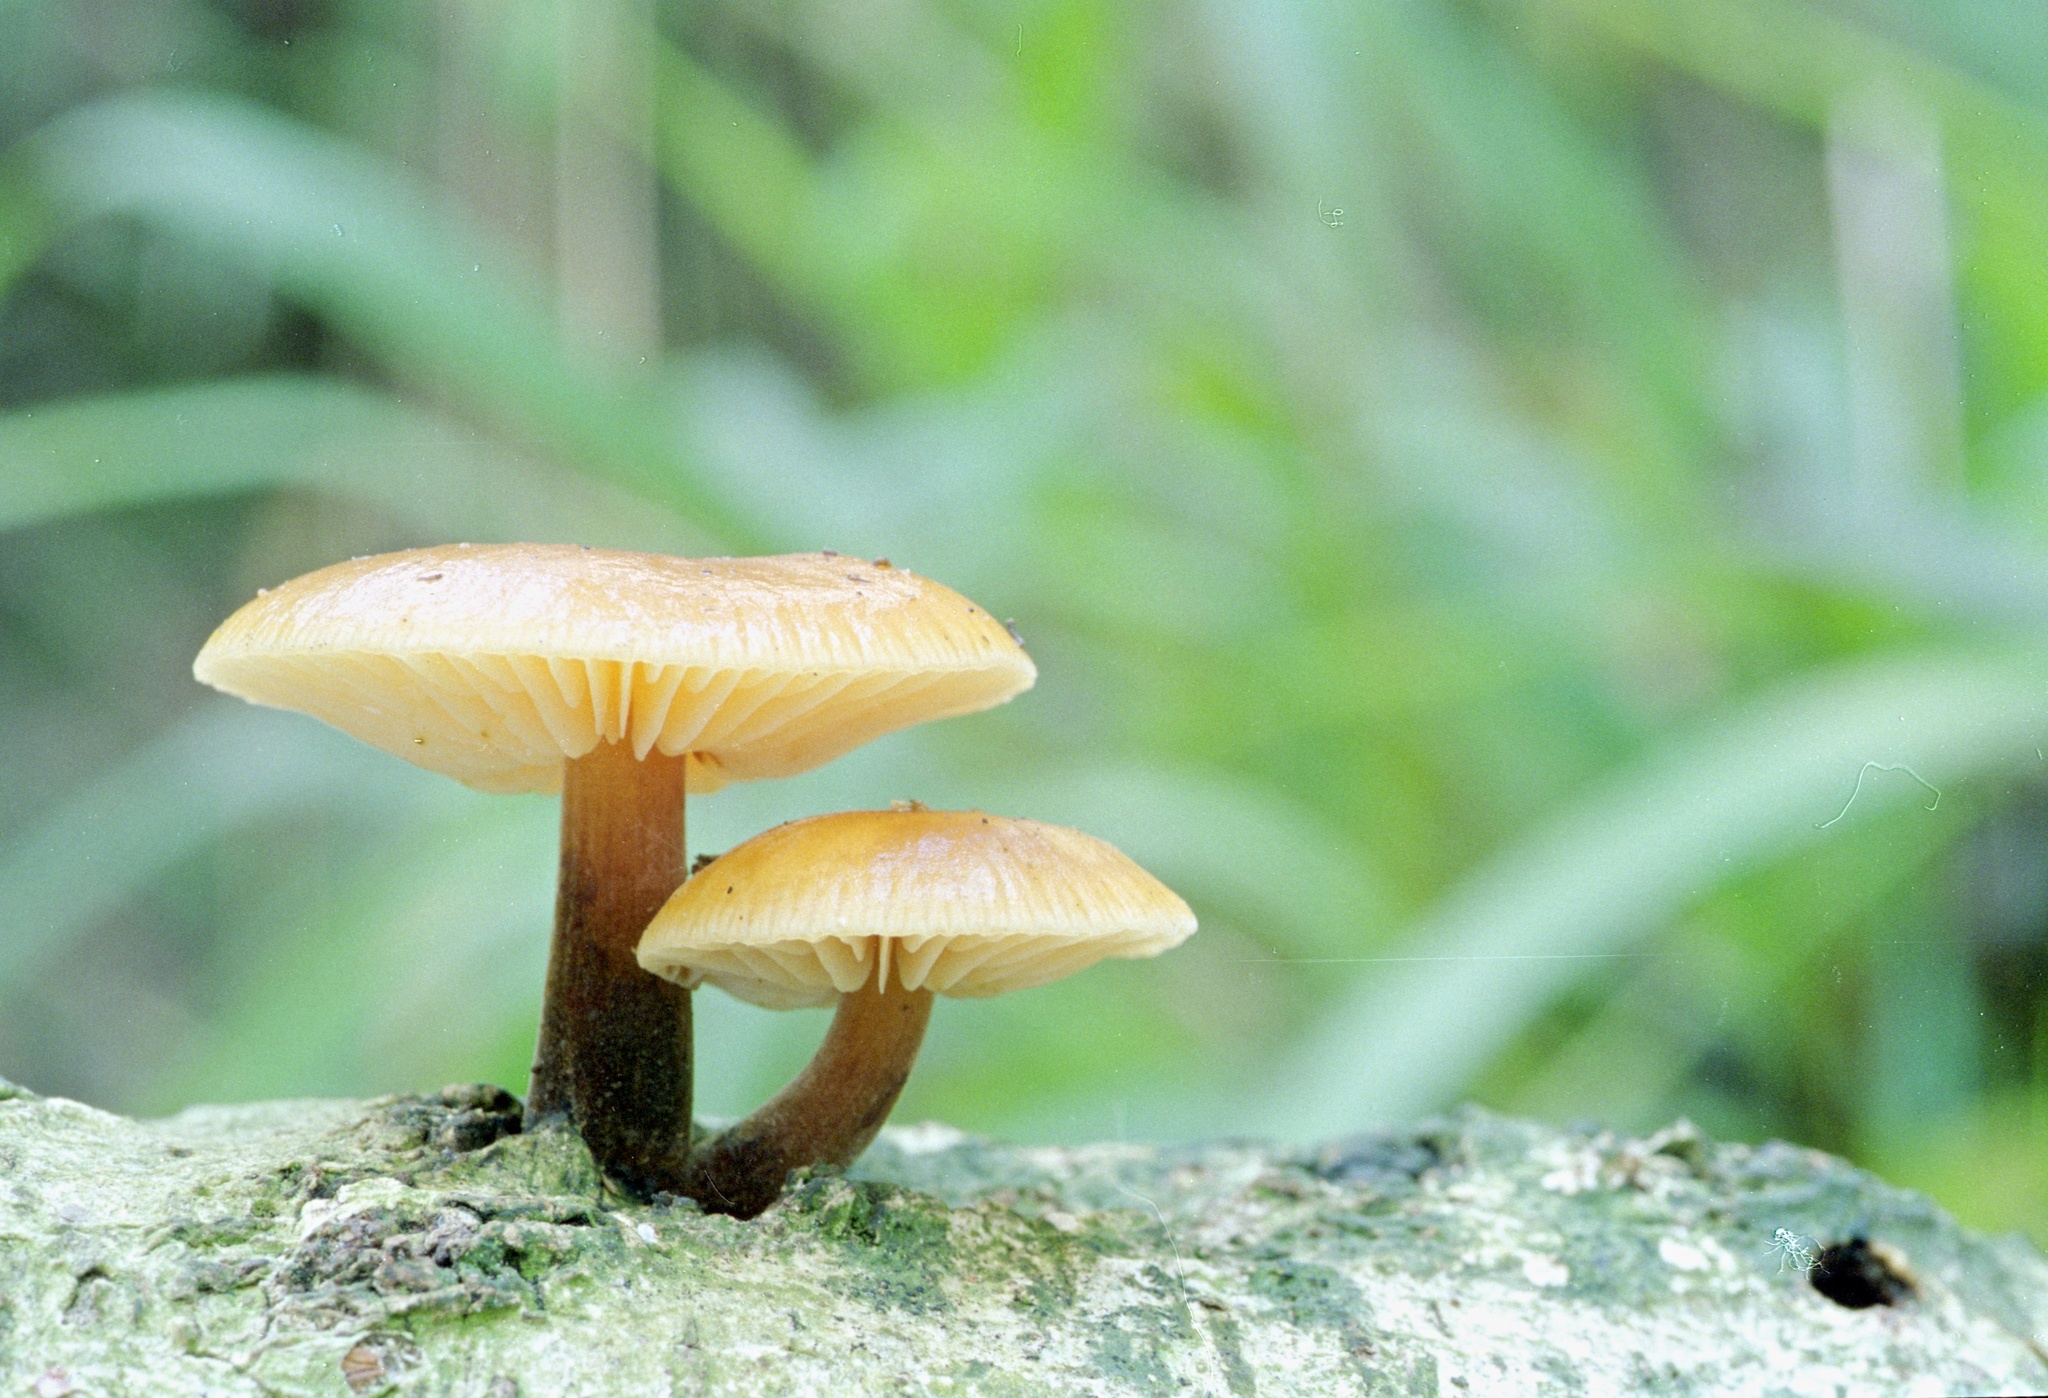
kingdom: Fungi
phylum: Basidiomycota
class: Agaricomycetes
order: Agaricales
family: Physalacriaceae
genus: Flammulina
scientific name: Flammulina velutipes
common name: Velvet shank
